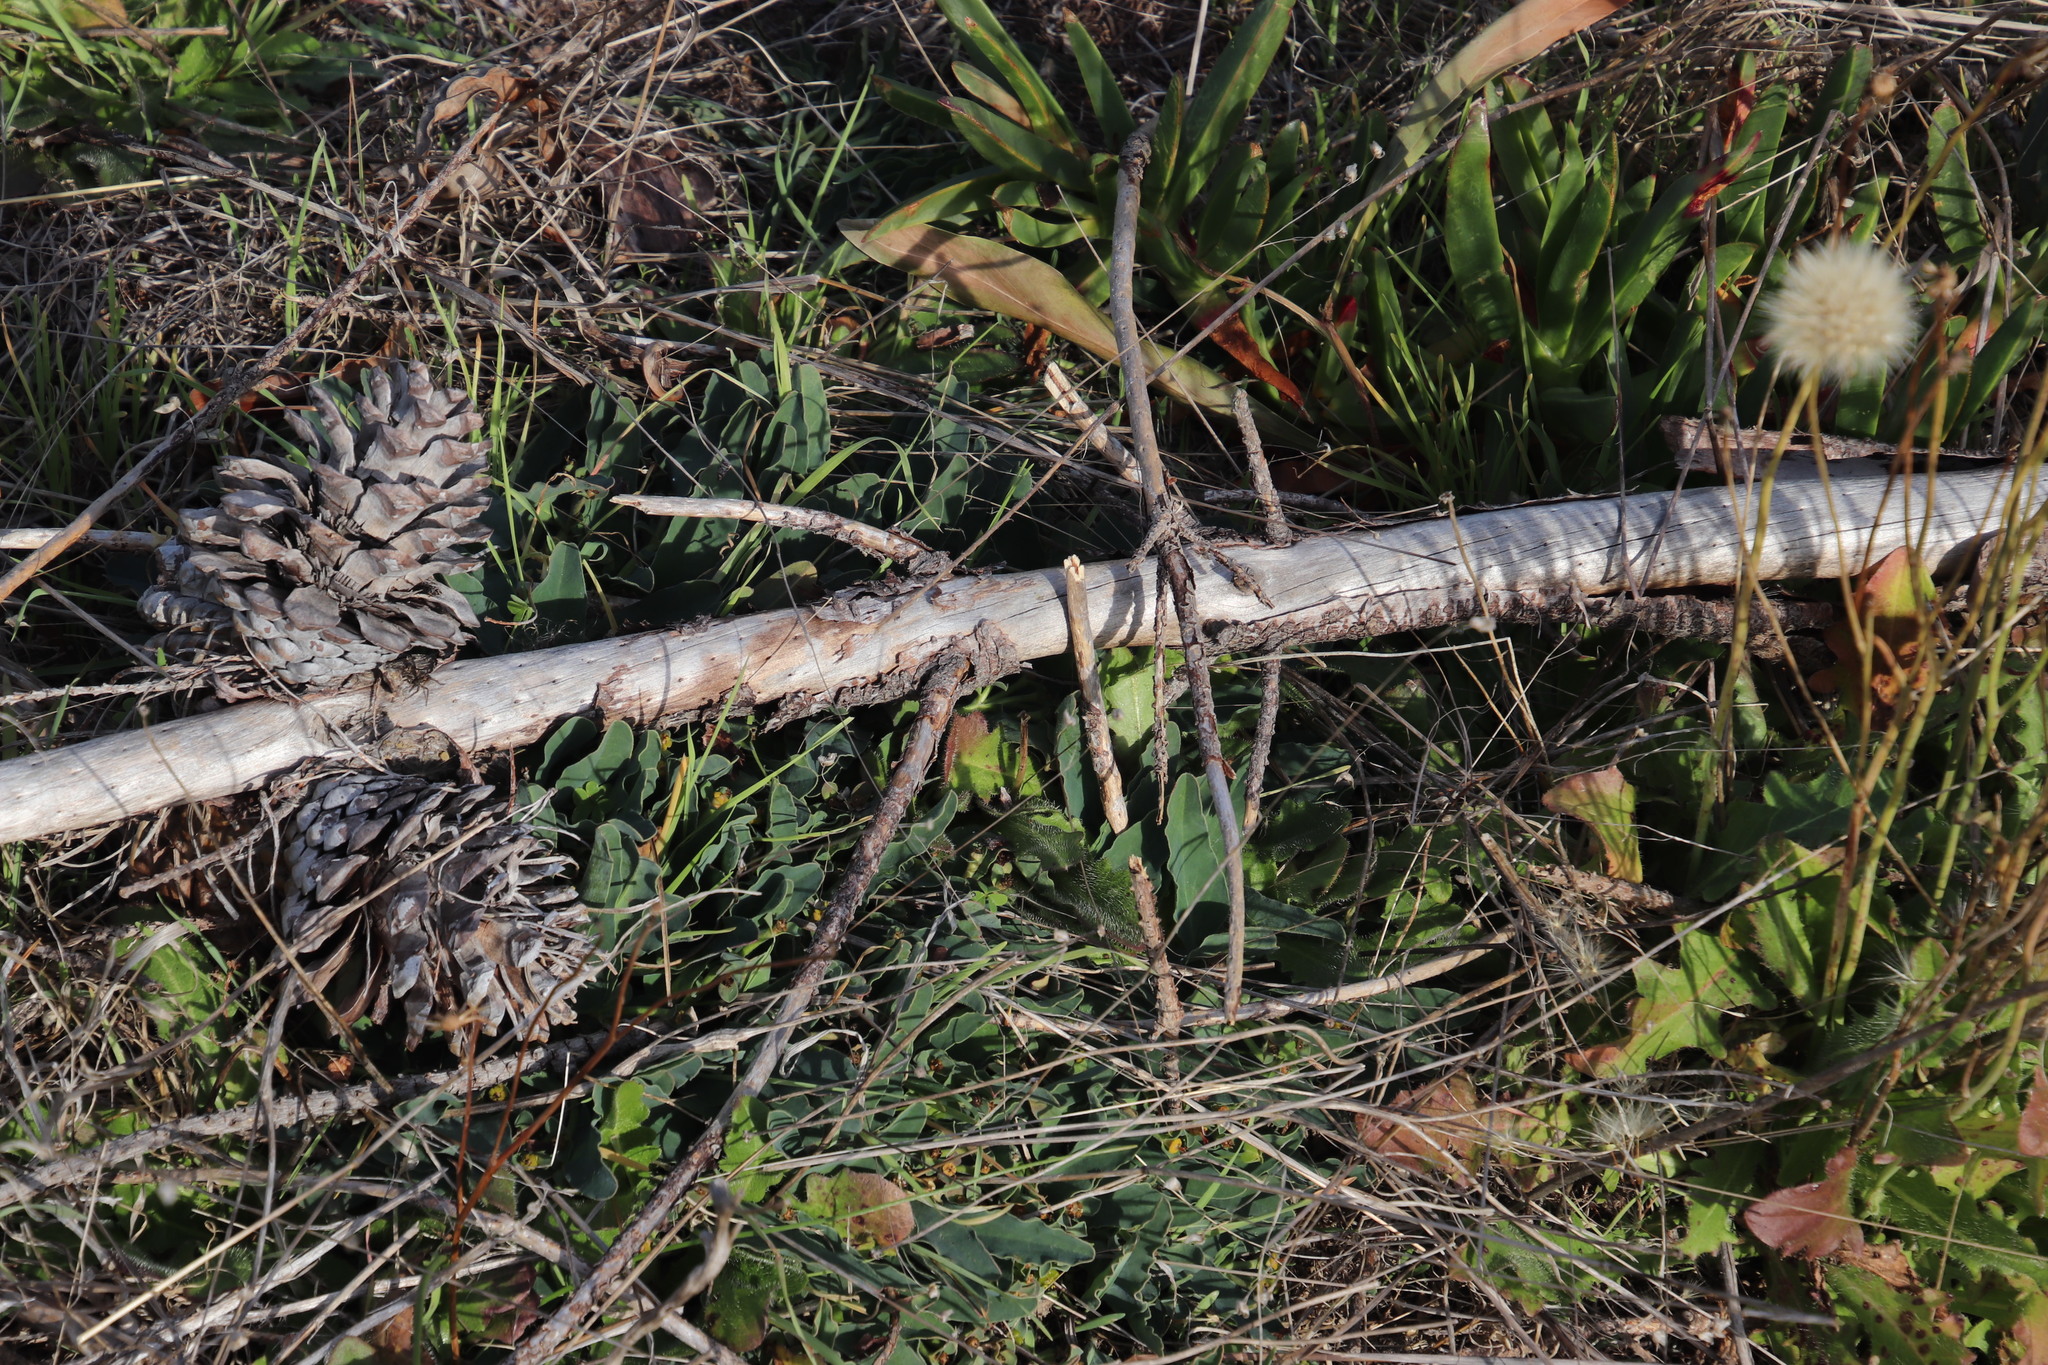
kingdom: Plantae
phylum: Tracheophyta
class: Magnoliopsida
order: Malpighiales
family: Euphorbiaceae
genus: Euphorbia
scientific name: Euphorbia tuberosa
